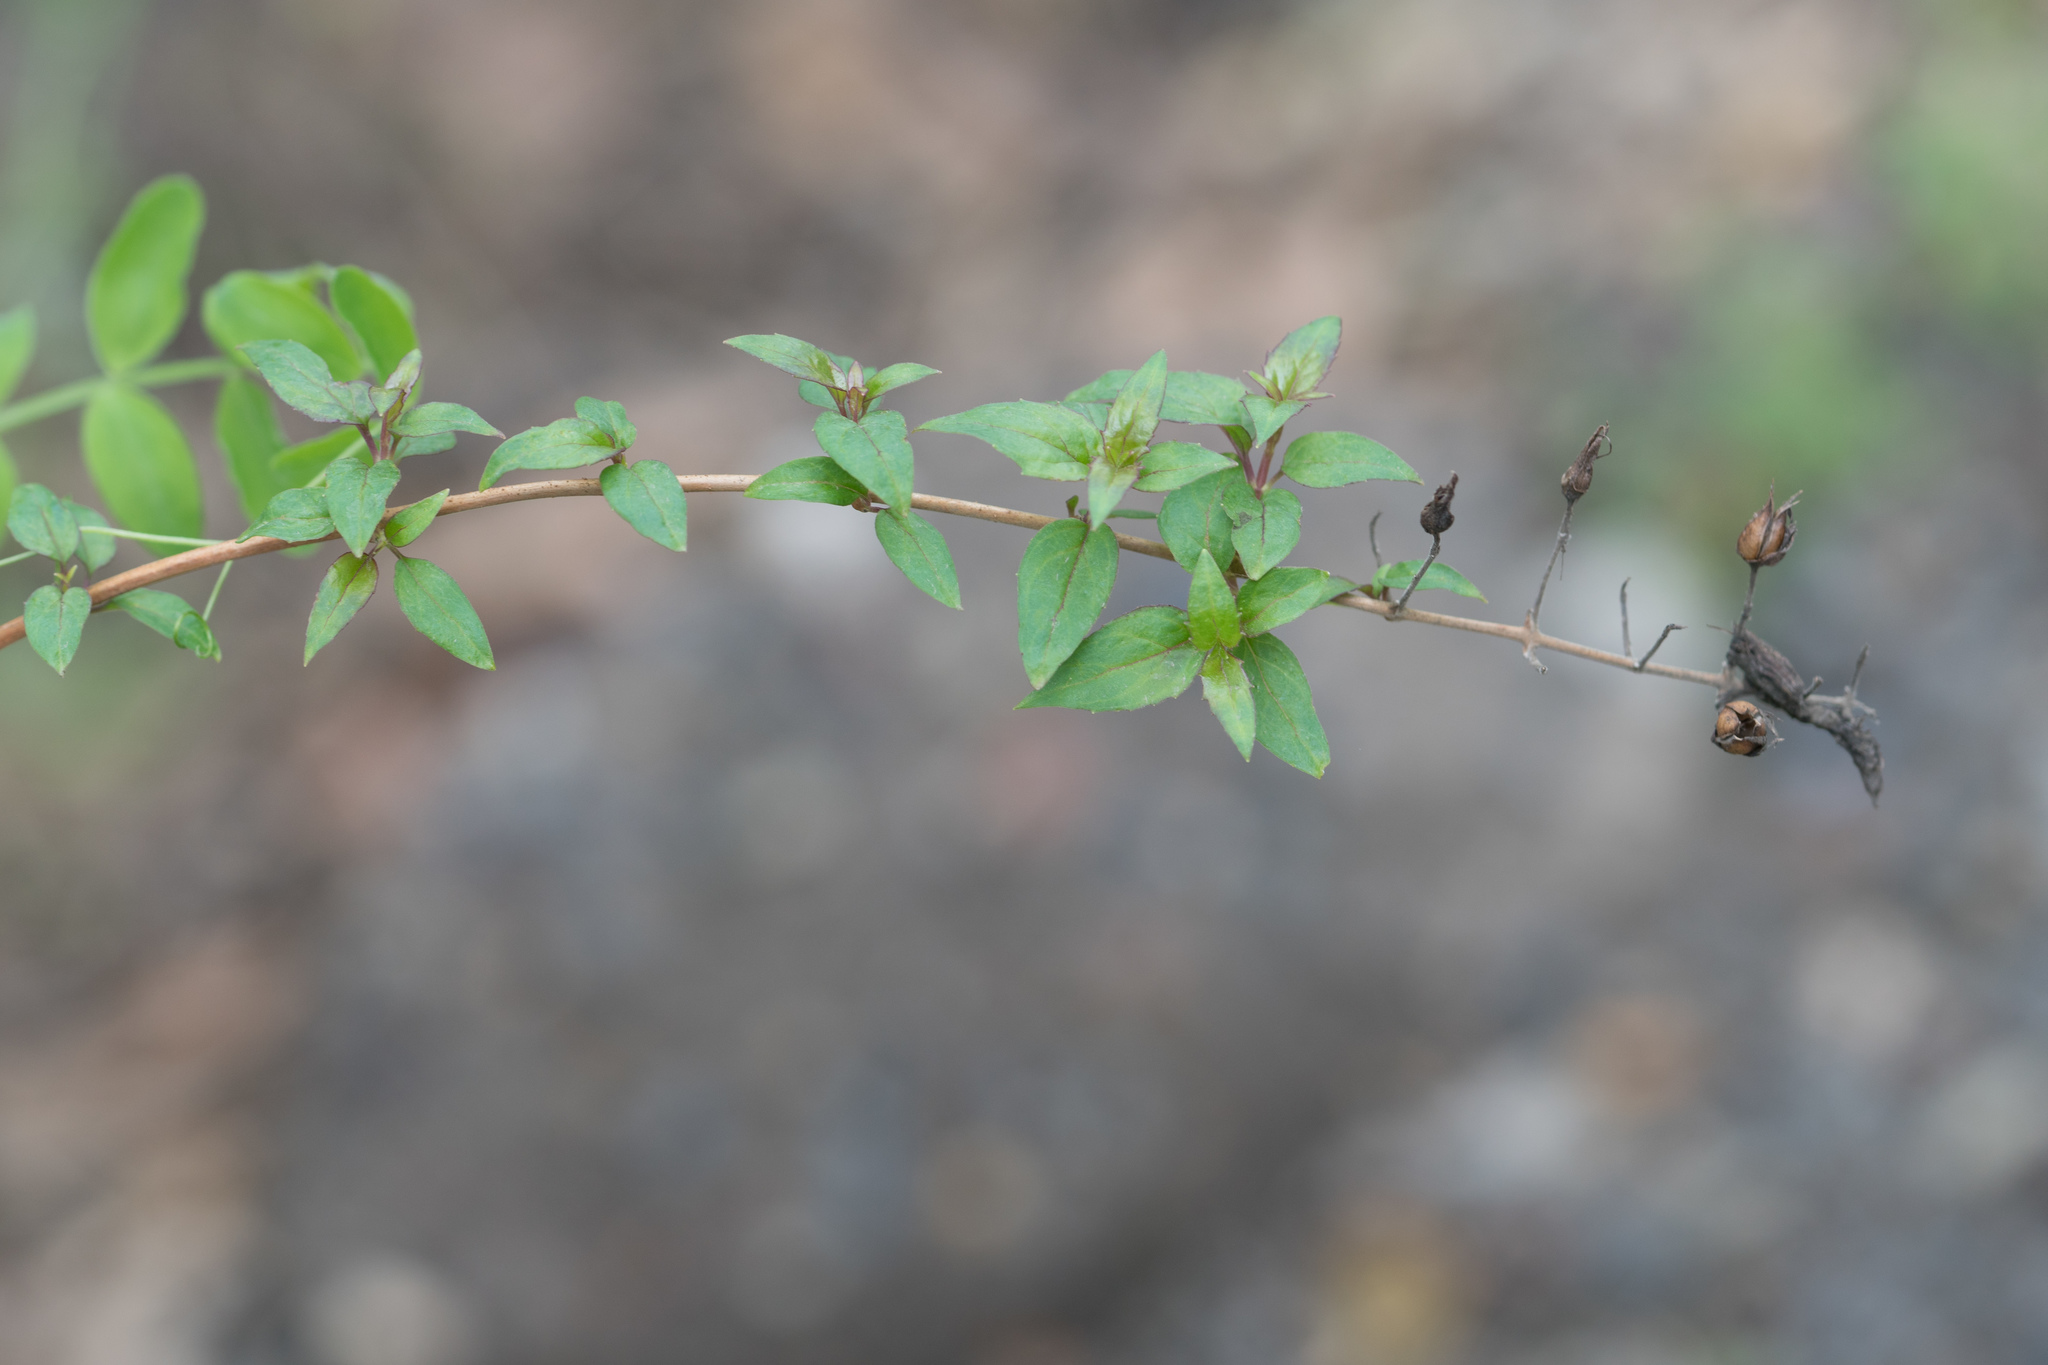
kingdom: Plantae
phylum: Tracheophyta
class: Magnoliopsida
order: Lamiales
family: Plantaginaceae
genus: Keckiella
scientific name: Keckiella cordifolia
